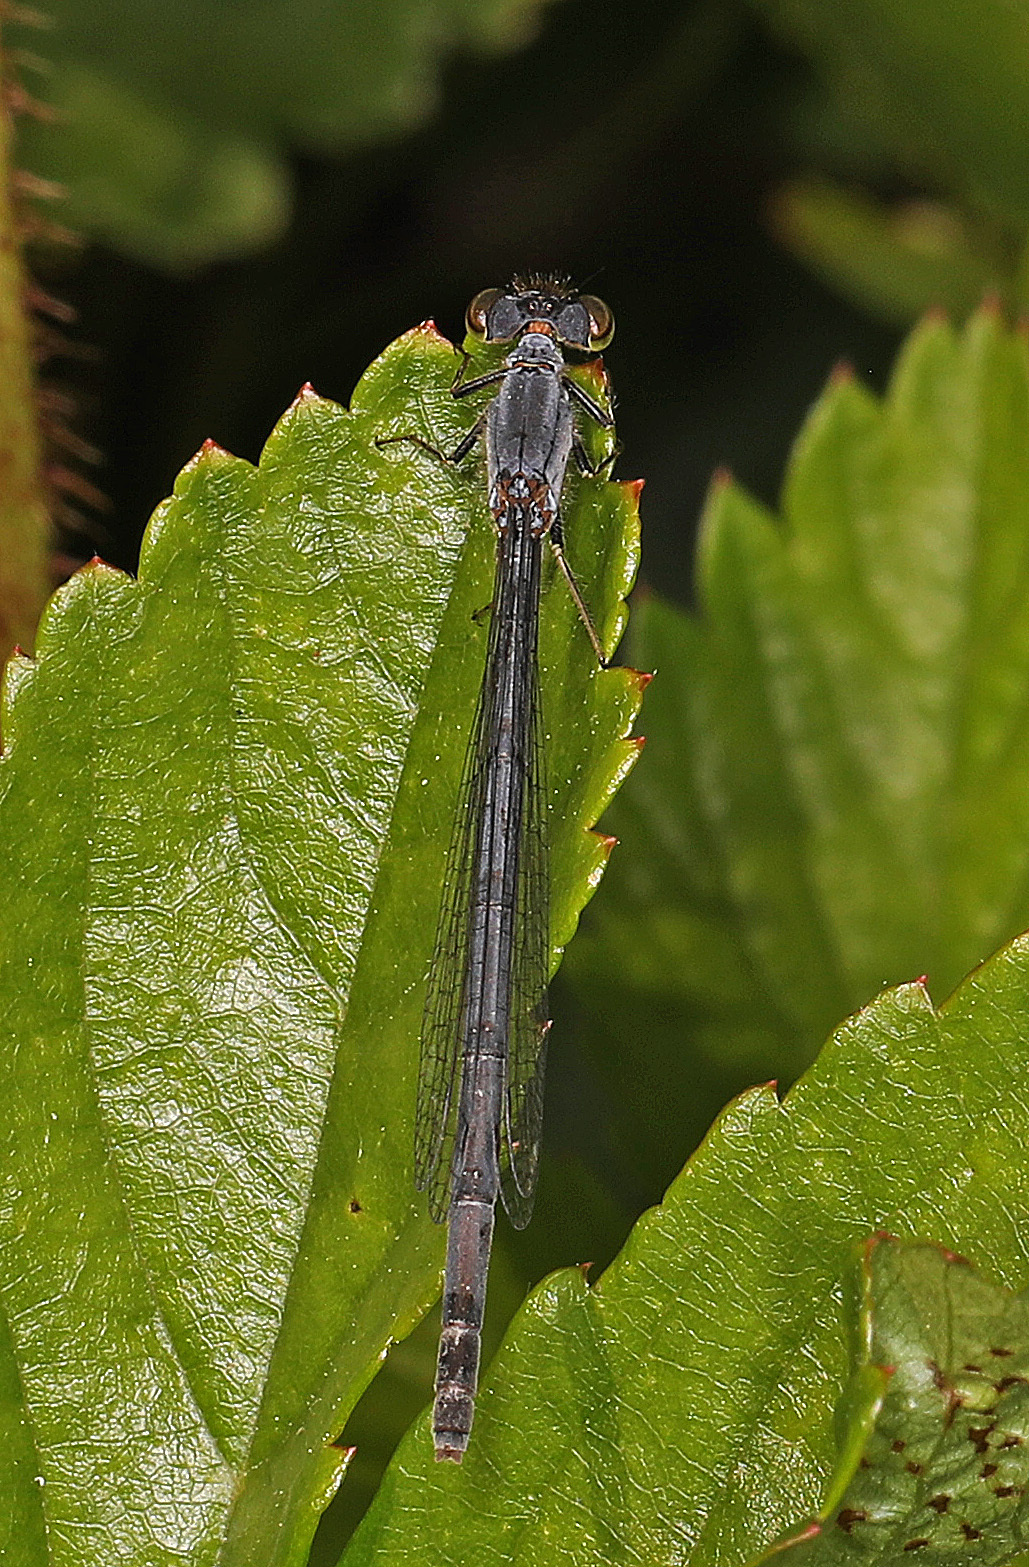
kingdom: Animalia
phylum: Arthropoda
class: Insecta
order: Odonata
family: Coenagrionidae
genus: Ischnura
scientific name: Ischnura posita
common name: Fragile forktail
